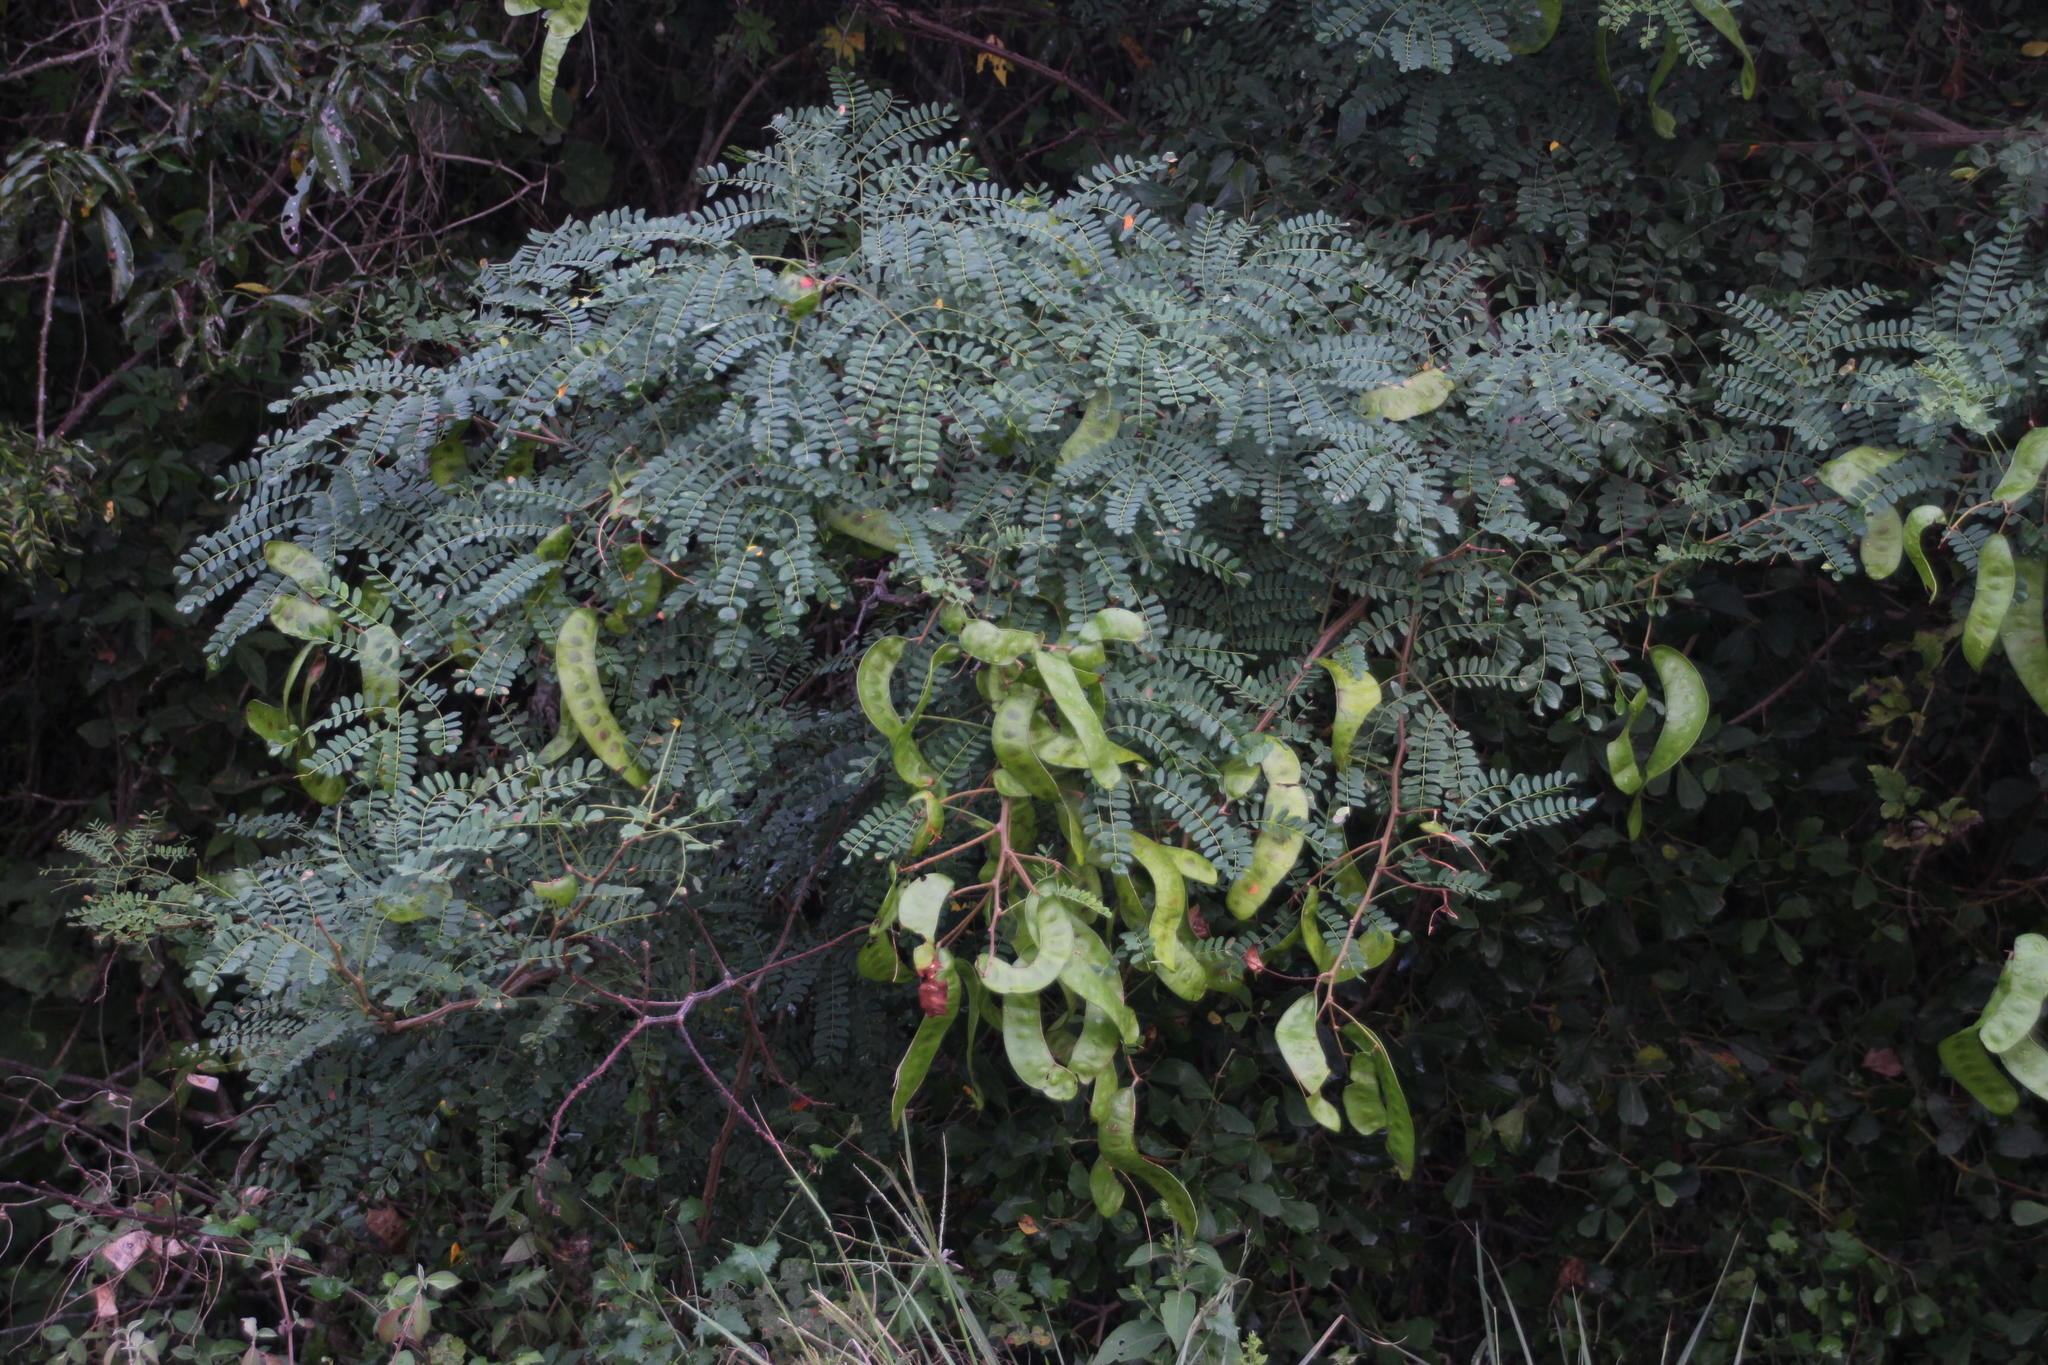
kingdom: Plantae
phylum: Tracheophyta
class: Magnoliopsida
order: Fabales
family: Fabaceae
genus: Gleditsia
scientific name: Gleditsia triacanthos
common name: Common honeylocust
